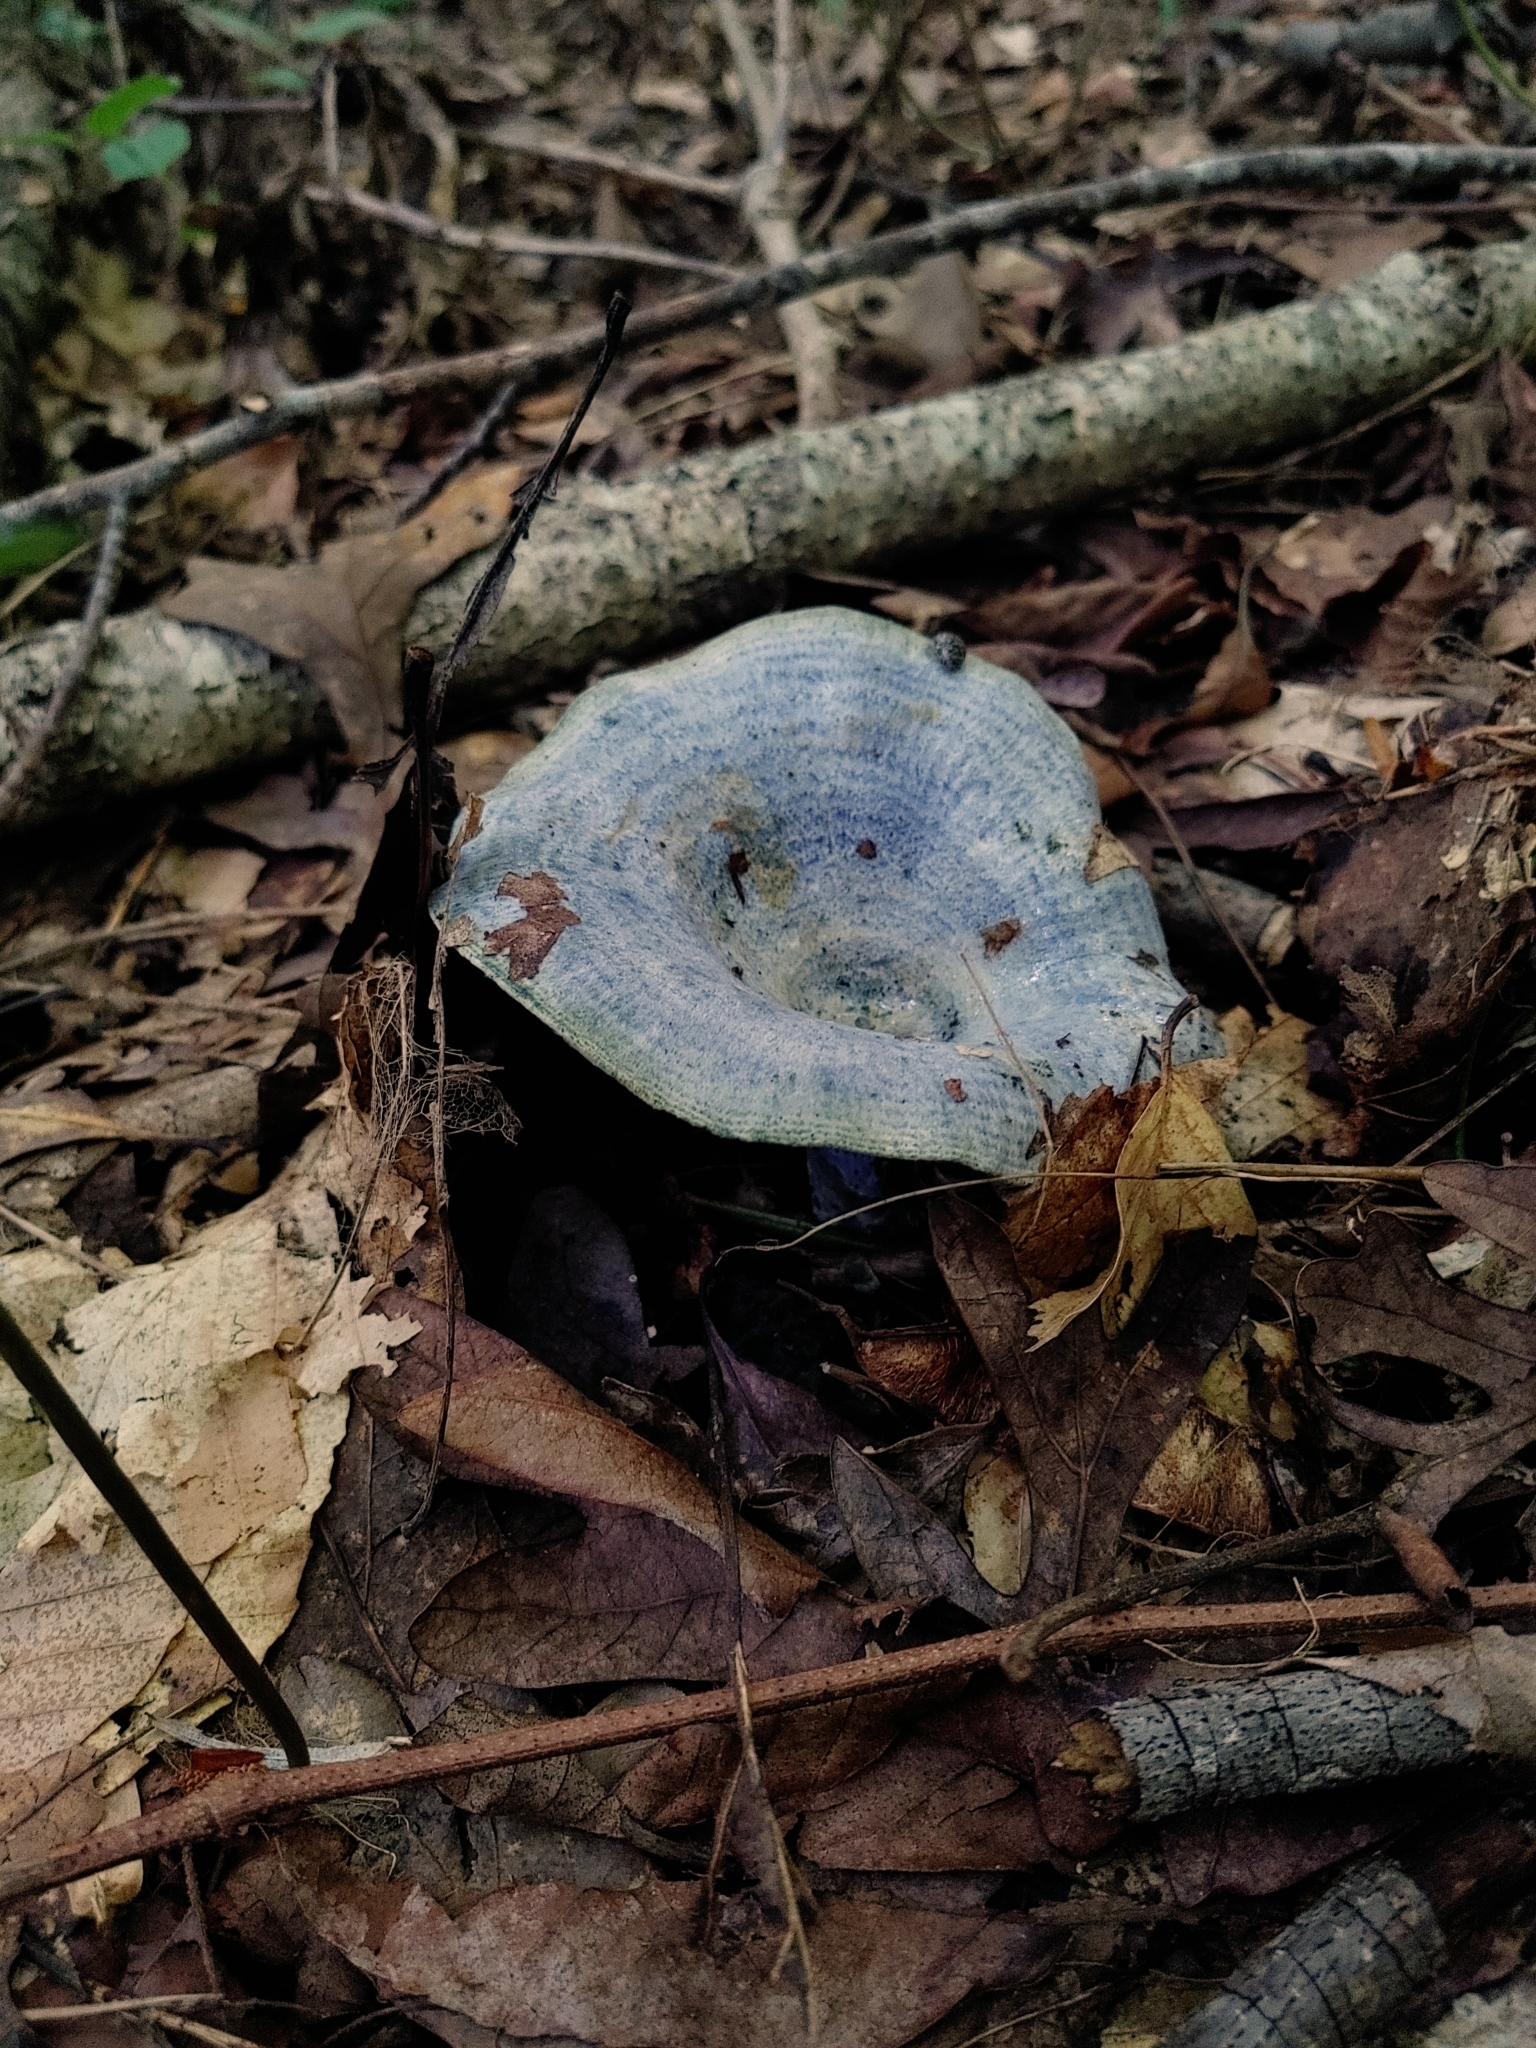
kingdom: Fungi
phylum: Basidiomycota
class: Agaricomycetes
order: Russulales
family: Russulaceae
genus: Lactarius
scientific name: Lactarius indigo
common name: Indigo milk cap
